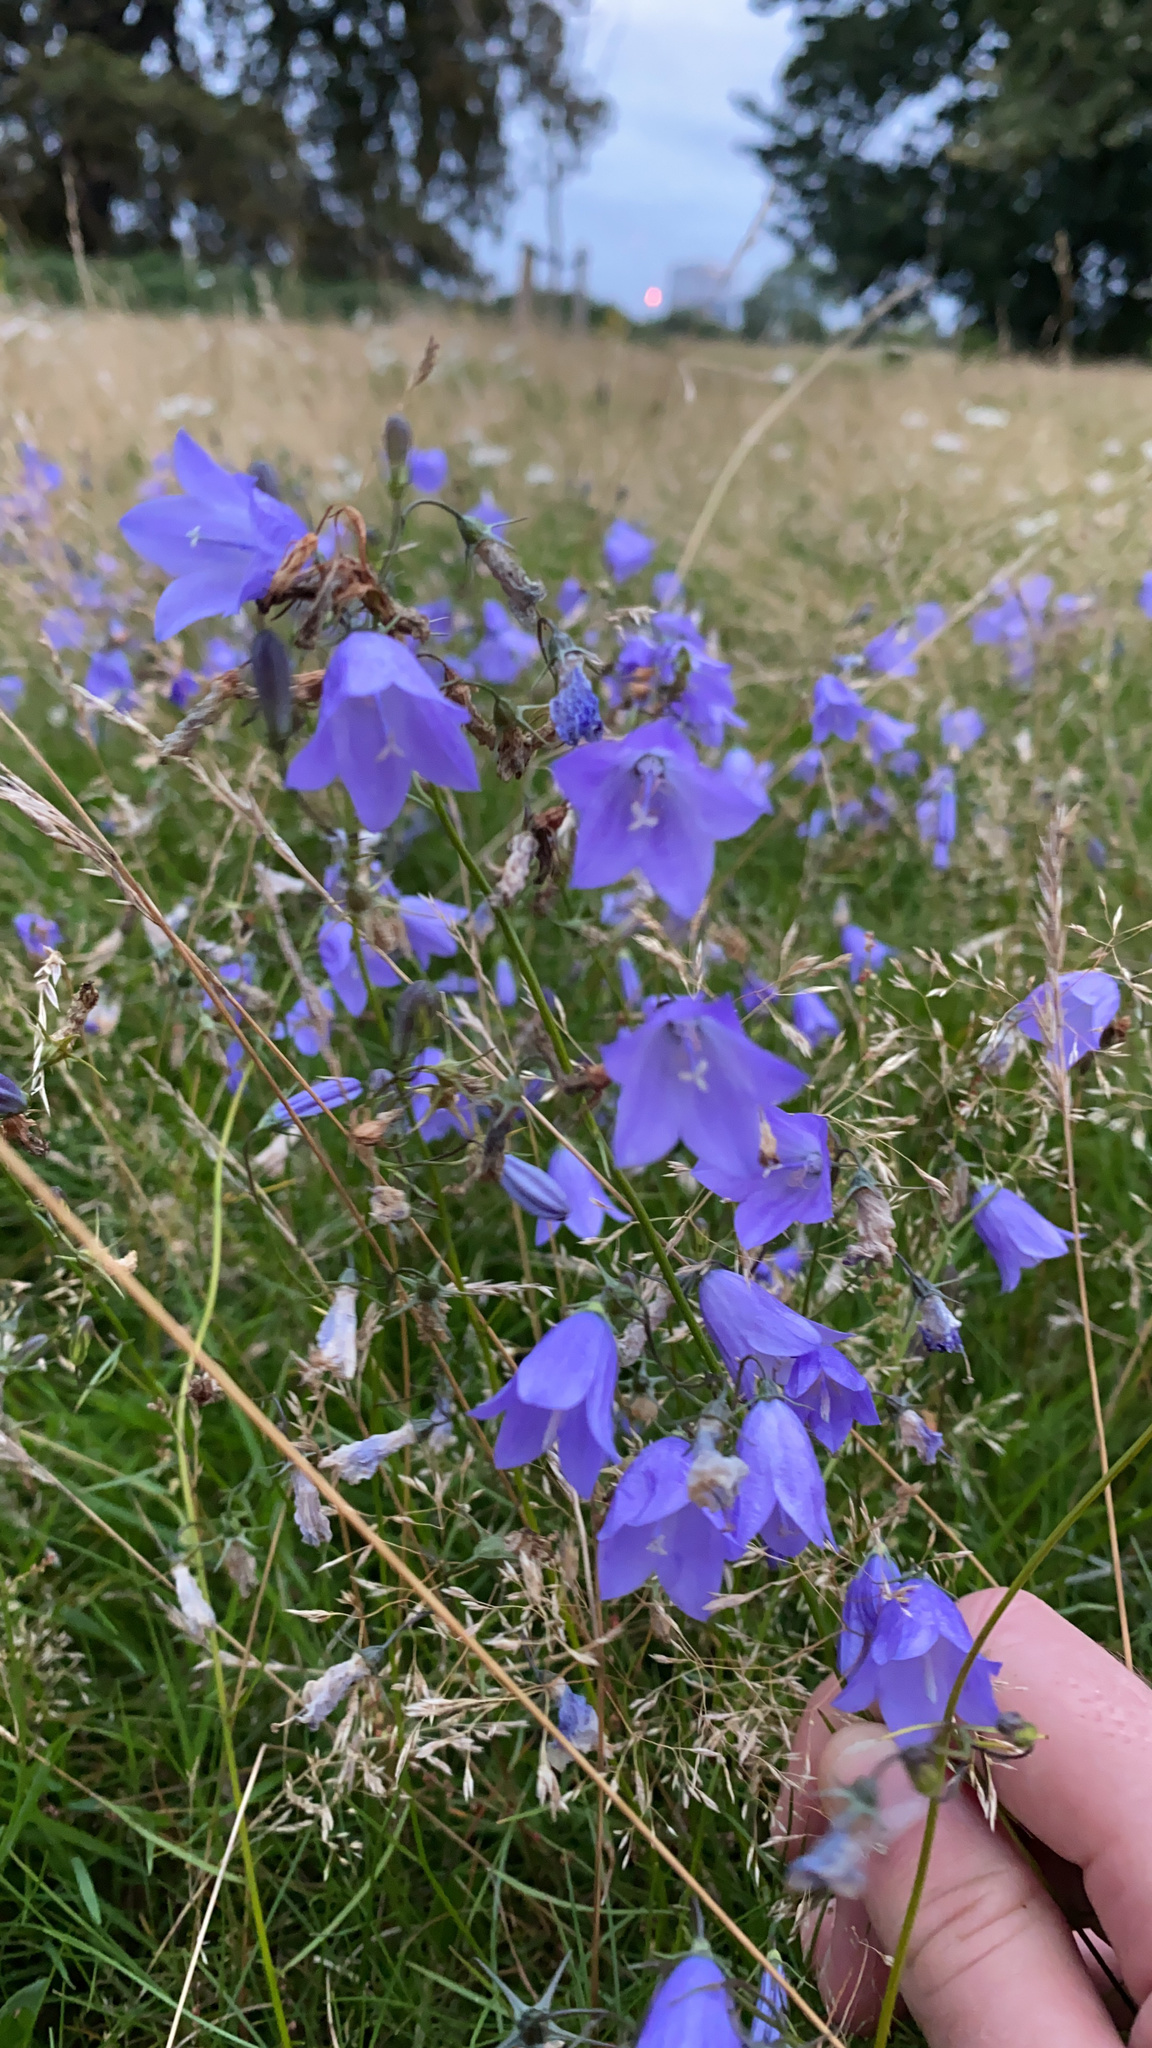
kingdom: Plantae
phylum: Tracheophyta
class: Magnoliopsida
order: Asterales
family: Campanulaceae
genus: Campanula
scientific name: Campanula rotundifolia
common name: Harebell
